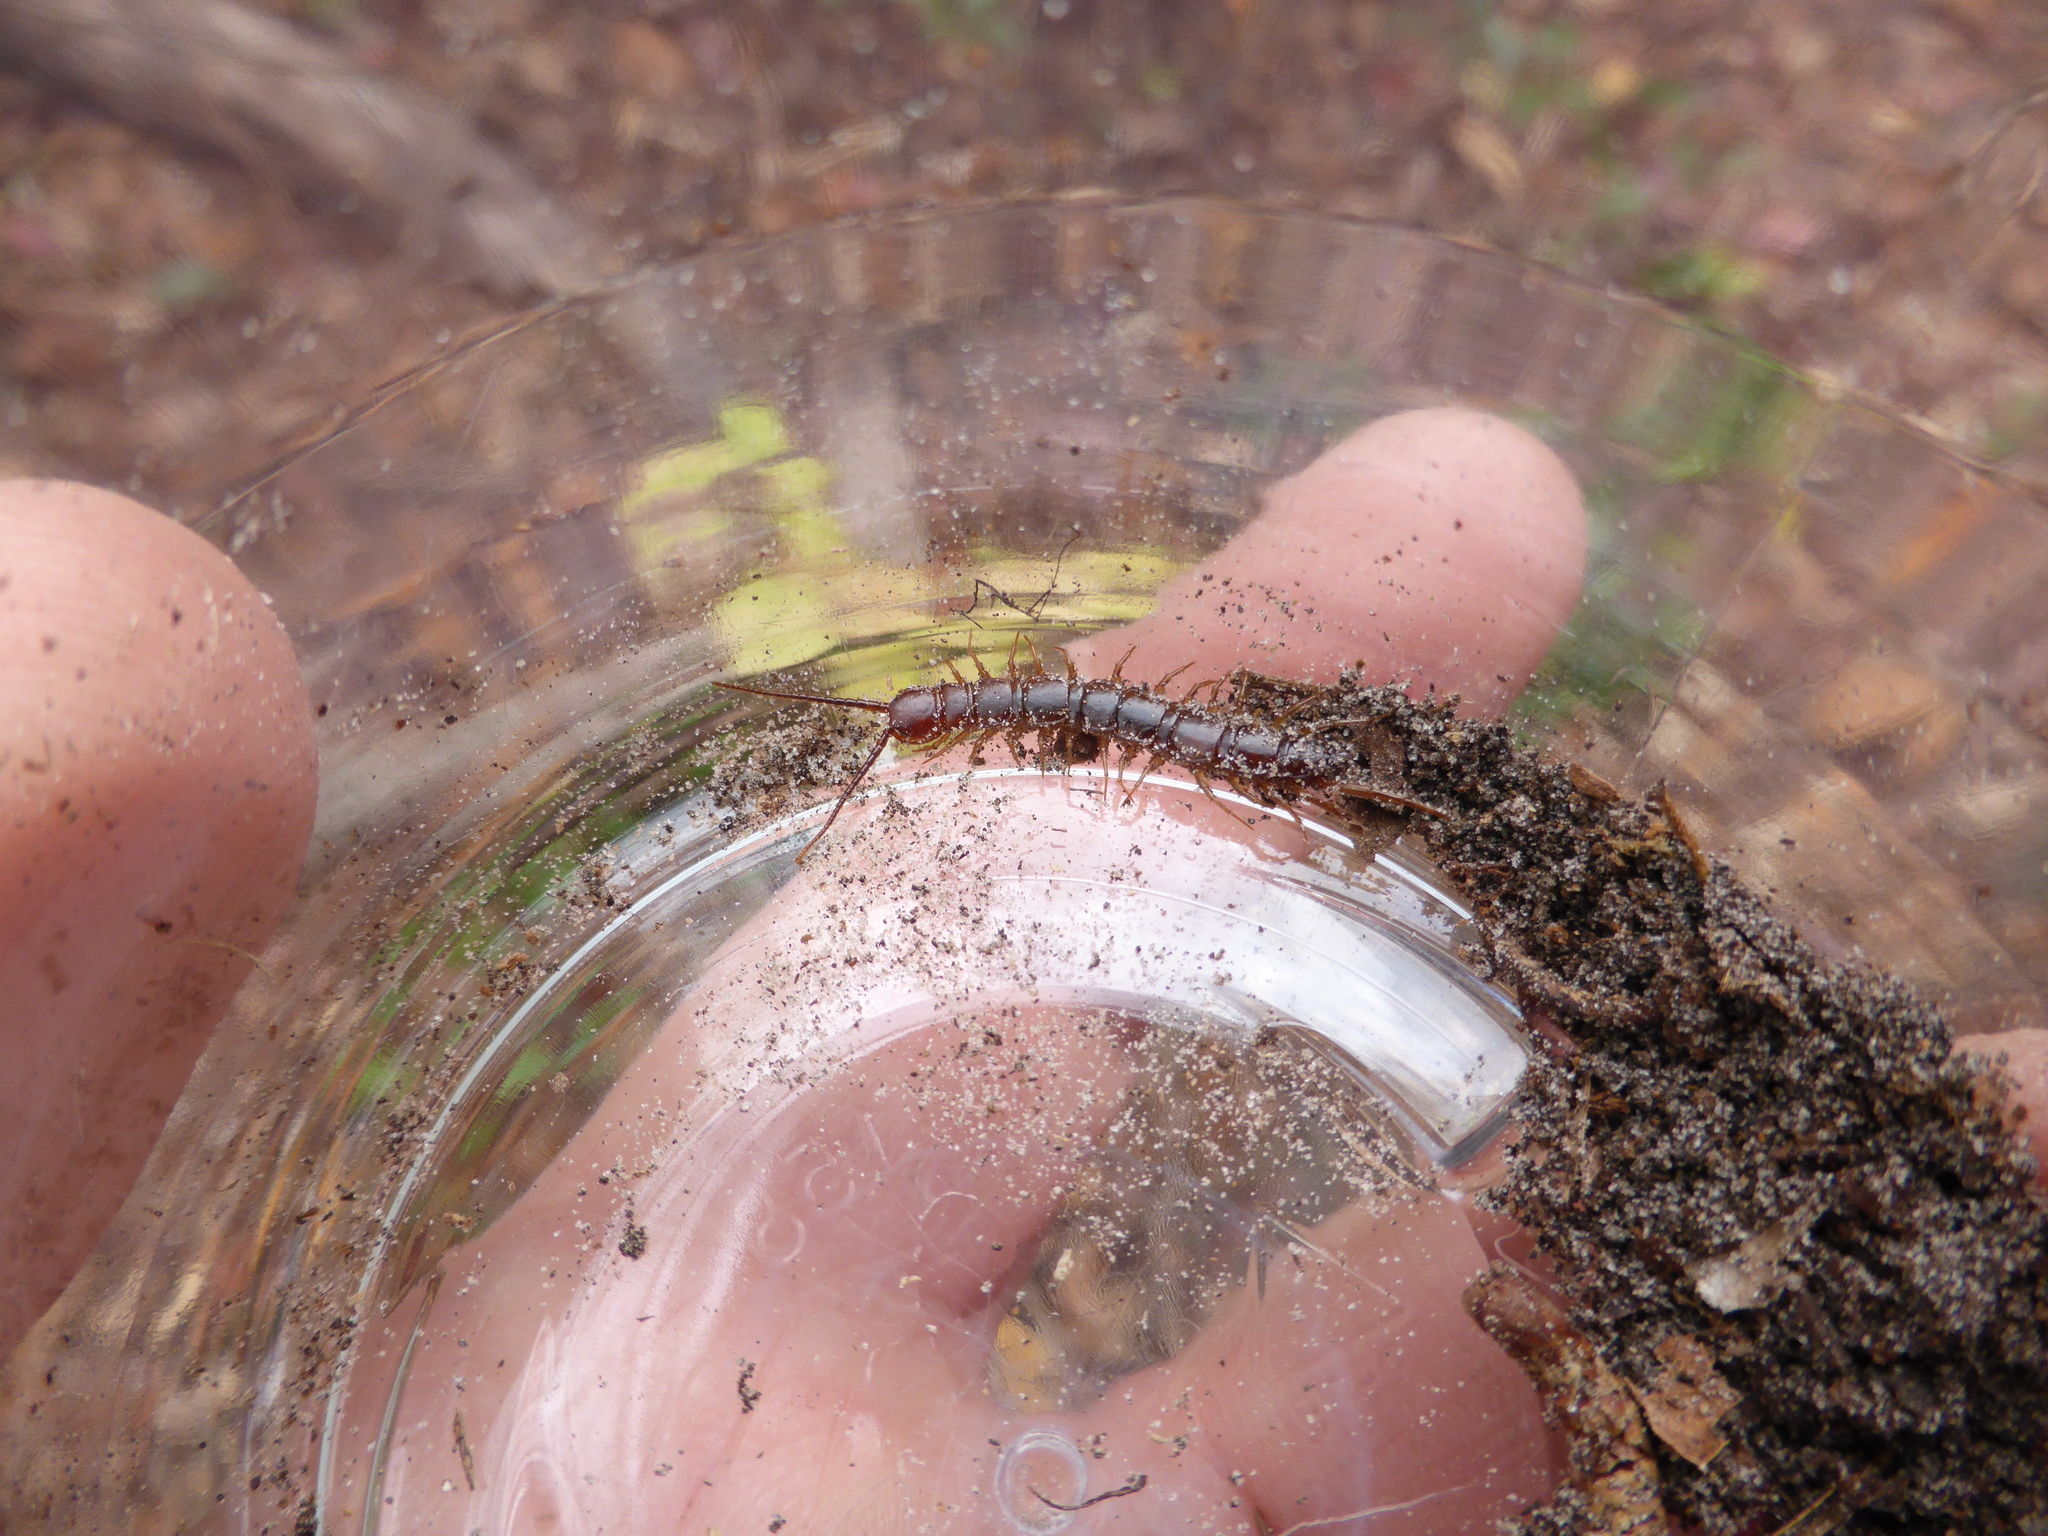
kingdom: Animalia
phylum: Arthropoda
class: Chilopoda
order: Lithobiomorpha
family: Lithobiidae
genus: Lithobius
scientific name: Lithobius forficatus
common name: Centipede
